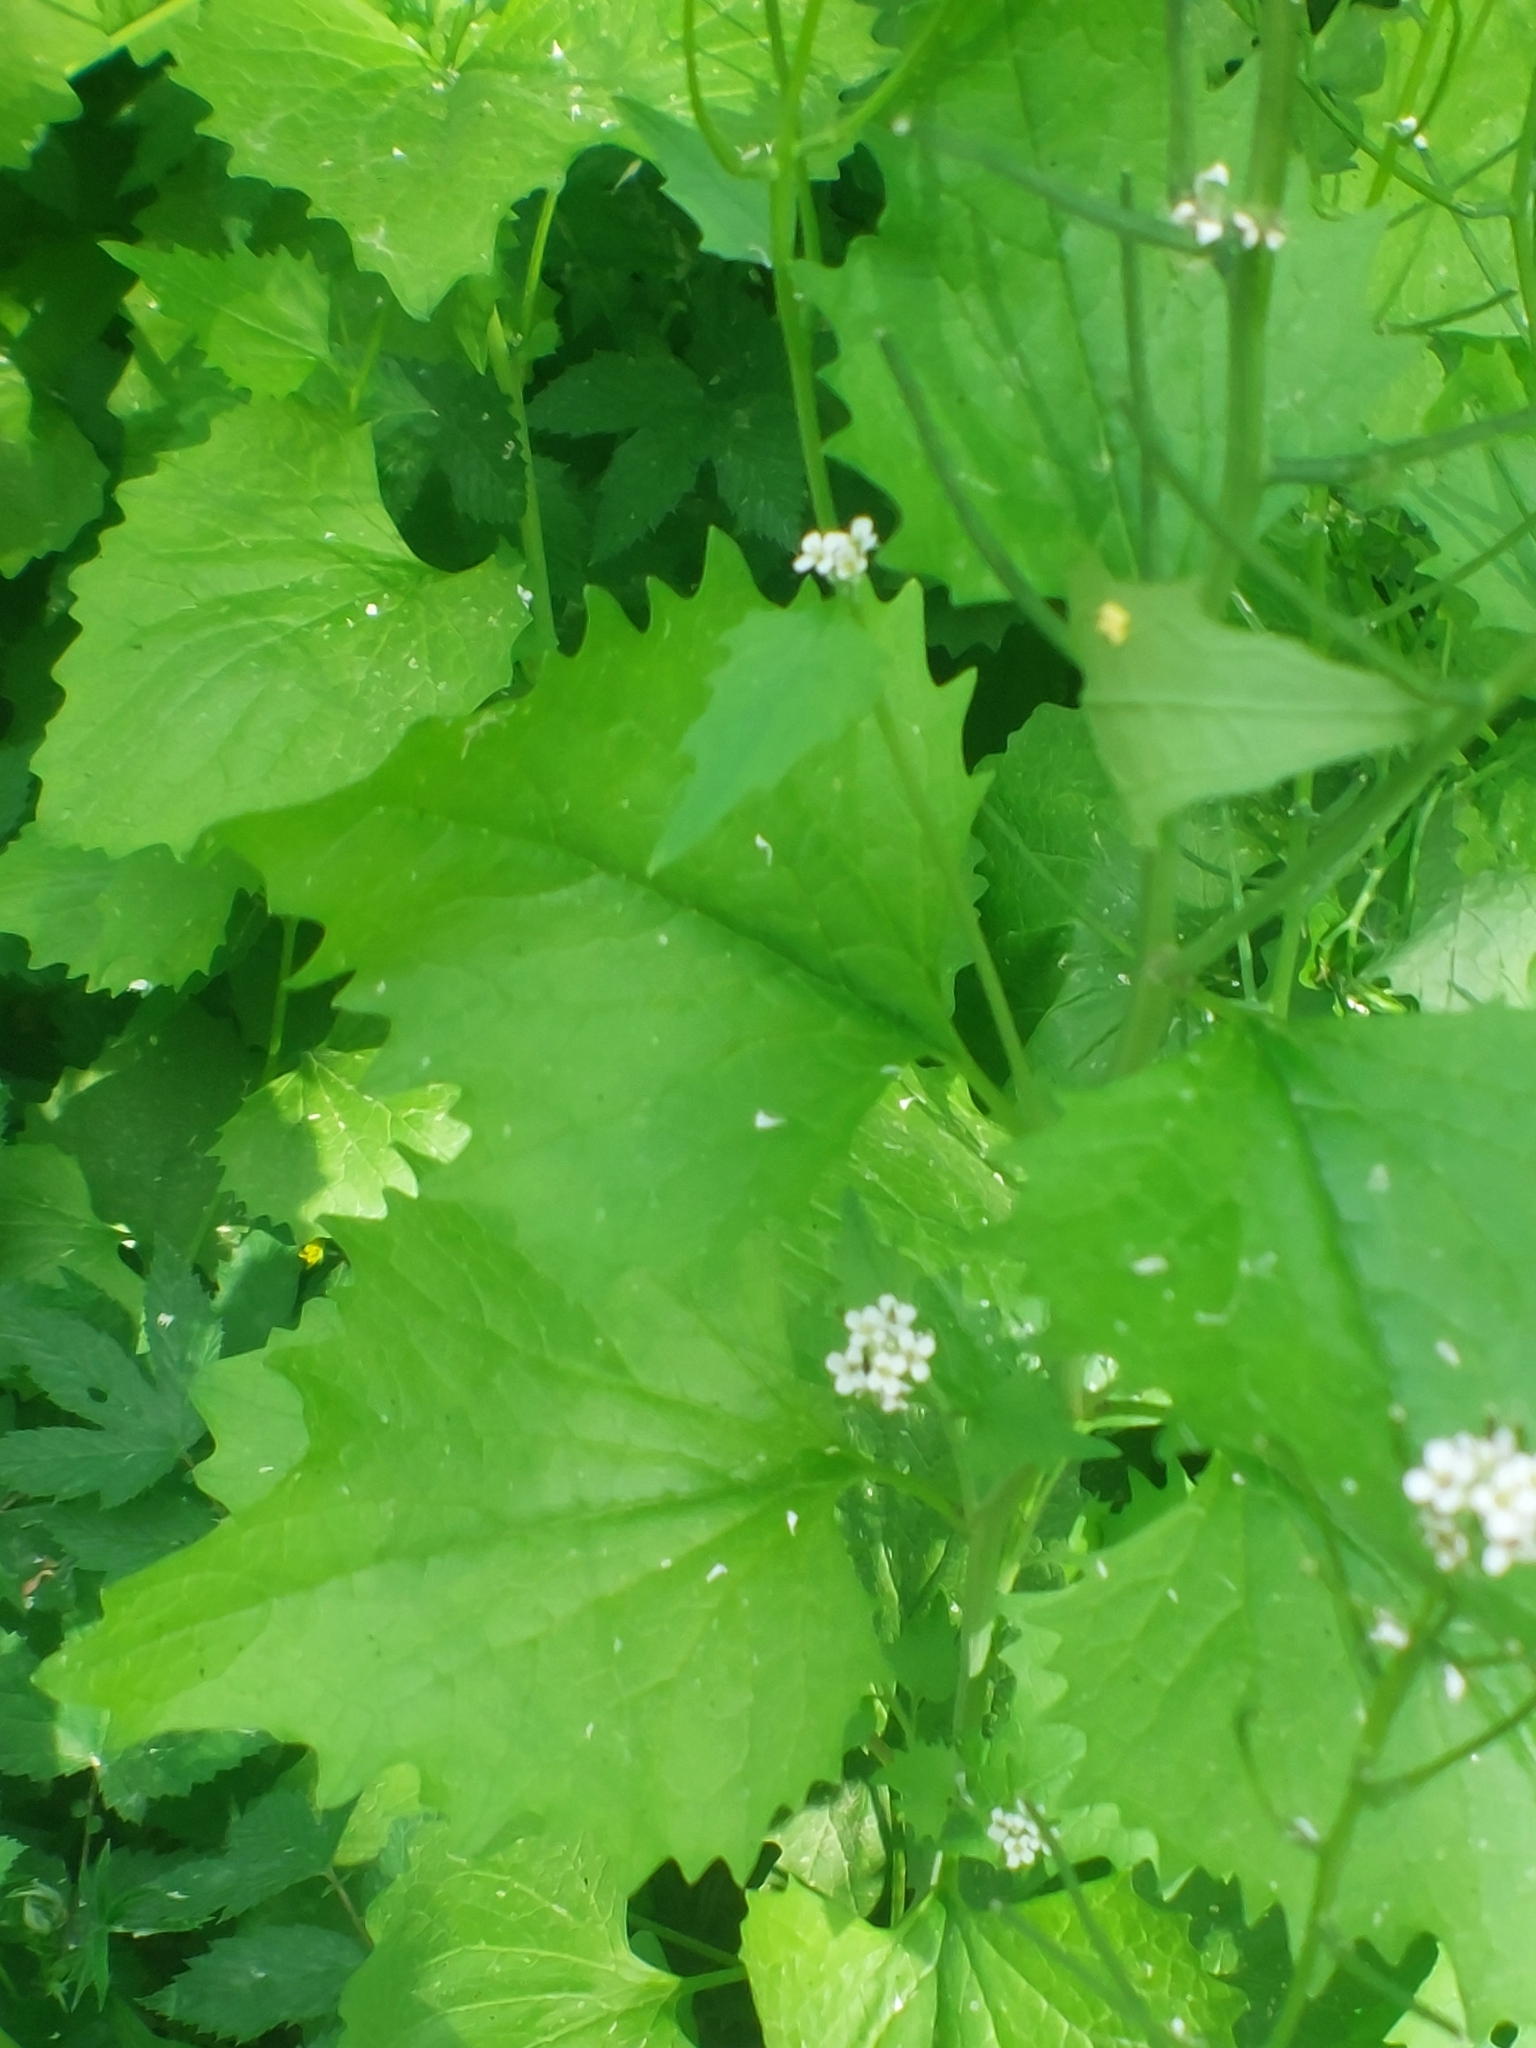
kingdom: Plantae
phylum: Tracheophyta
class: Magnoliopsida
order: Brassicales
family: Brassicaceae
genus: Alliaria
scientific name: Alliaria petiolata
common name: Garlic mustard
